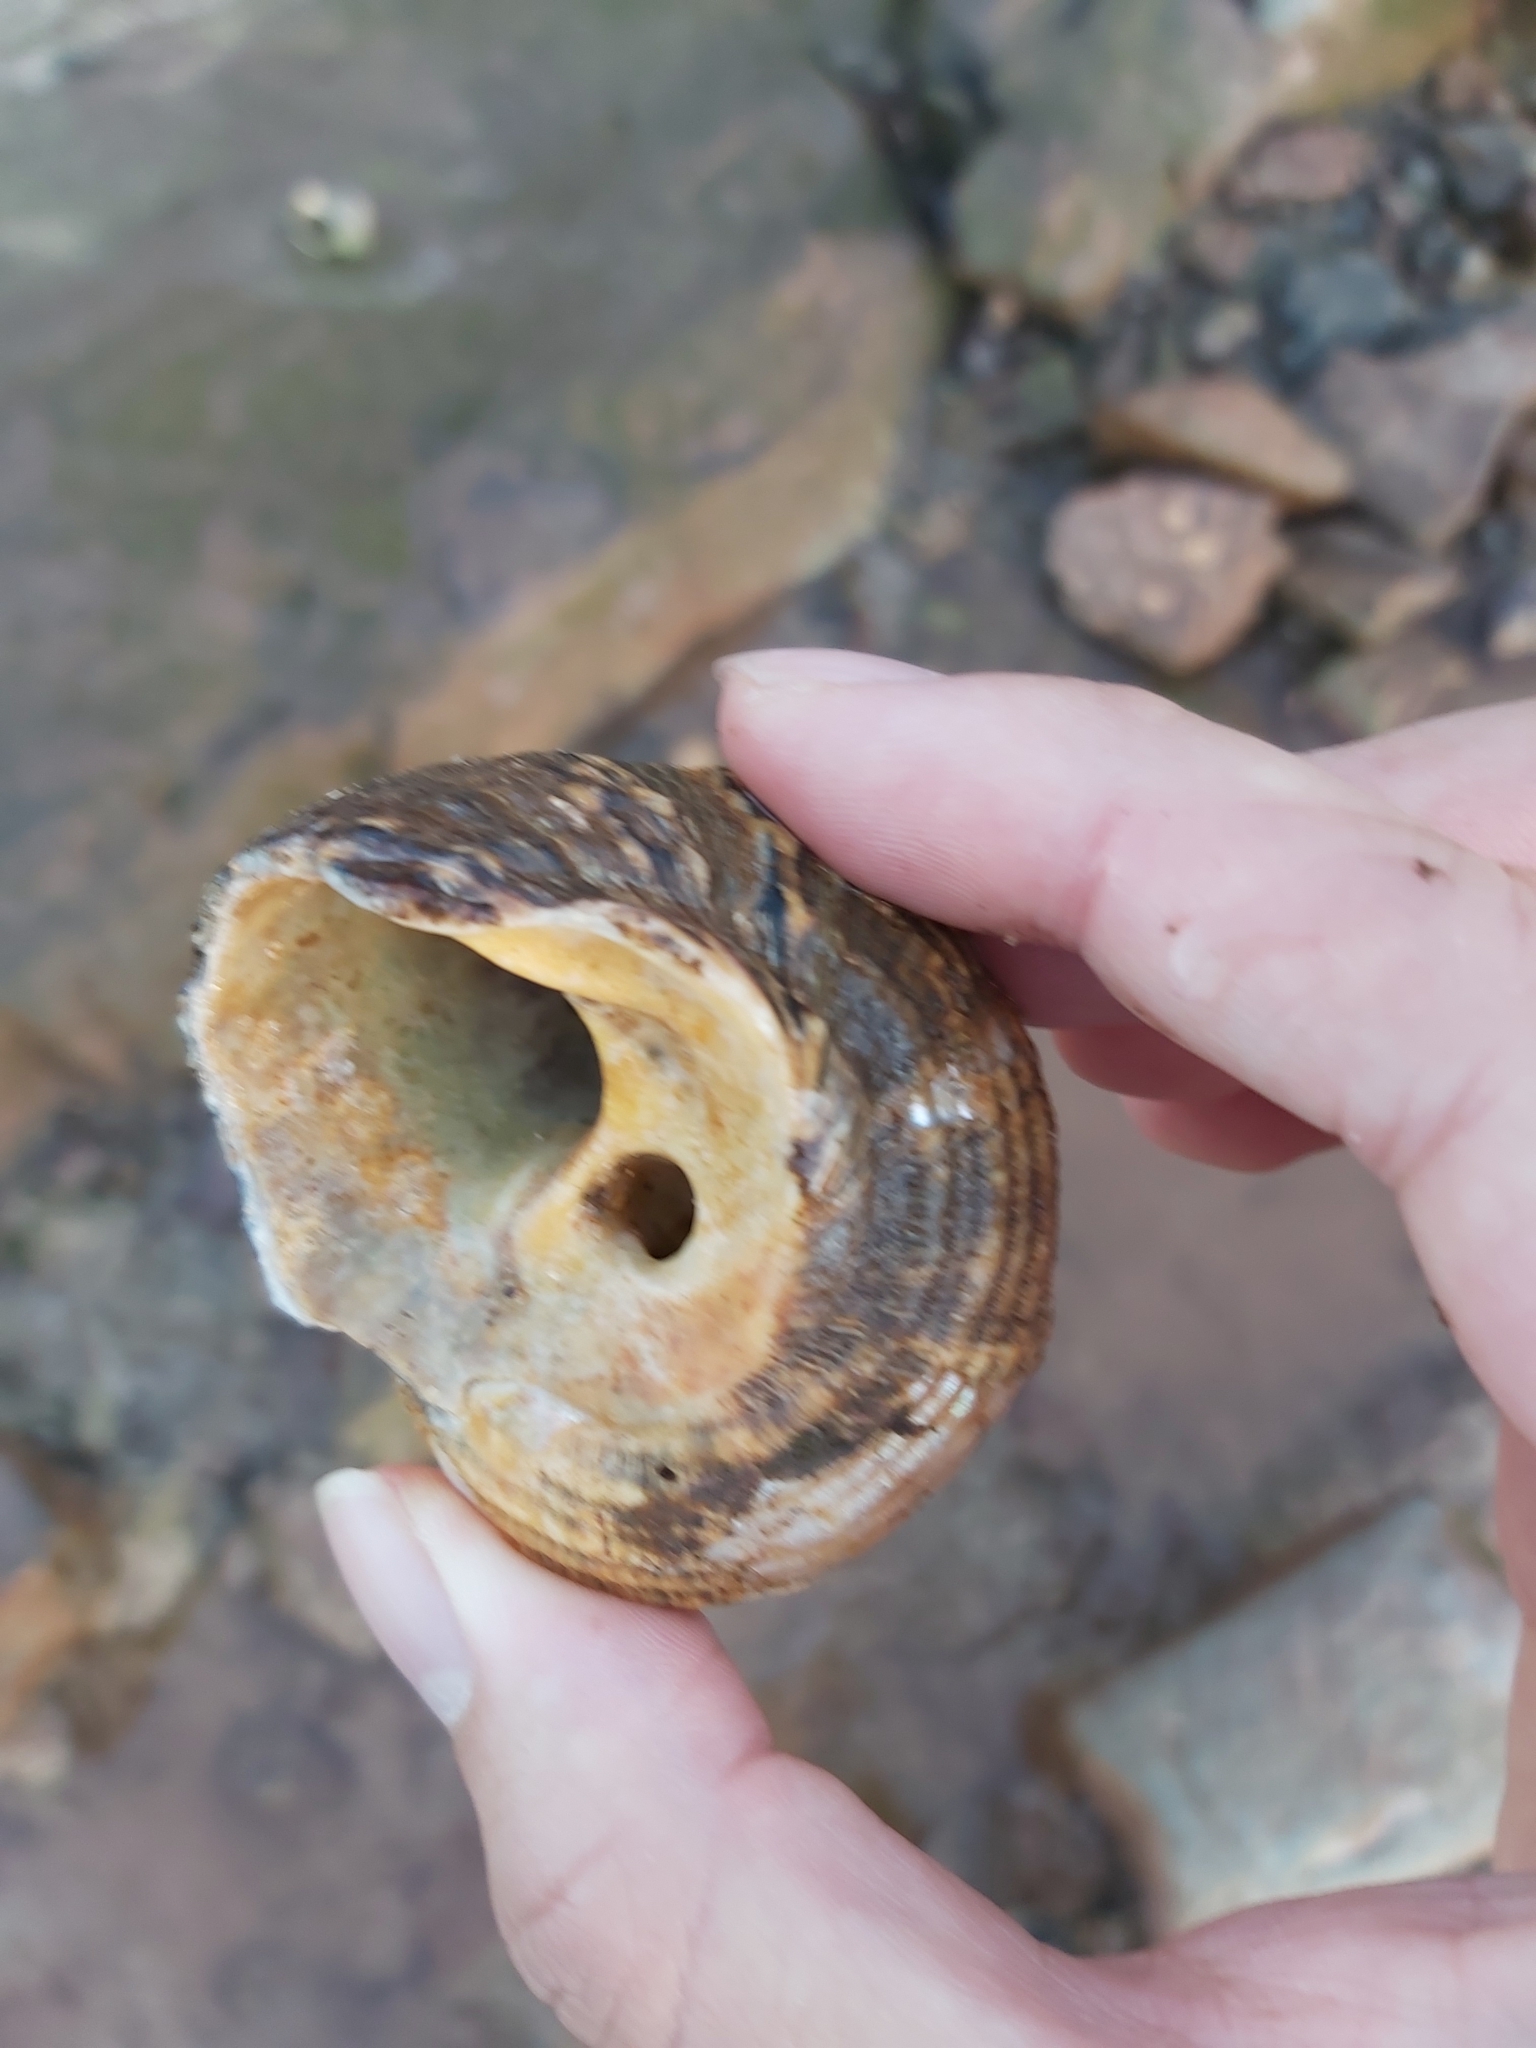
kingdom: Animalia
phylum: Mollusca
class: Gastropoda
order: Trochida
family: Turbinidae
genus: Lunella
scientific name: Lunella torquata
